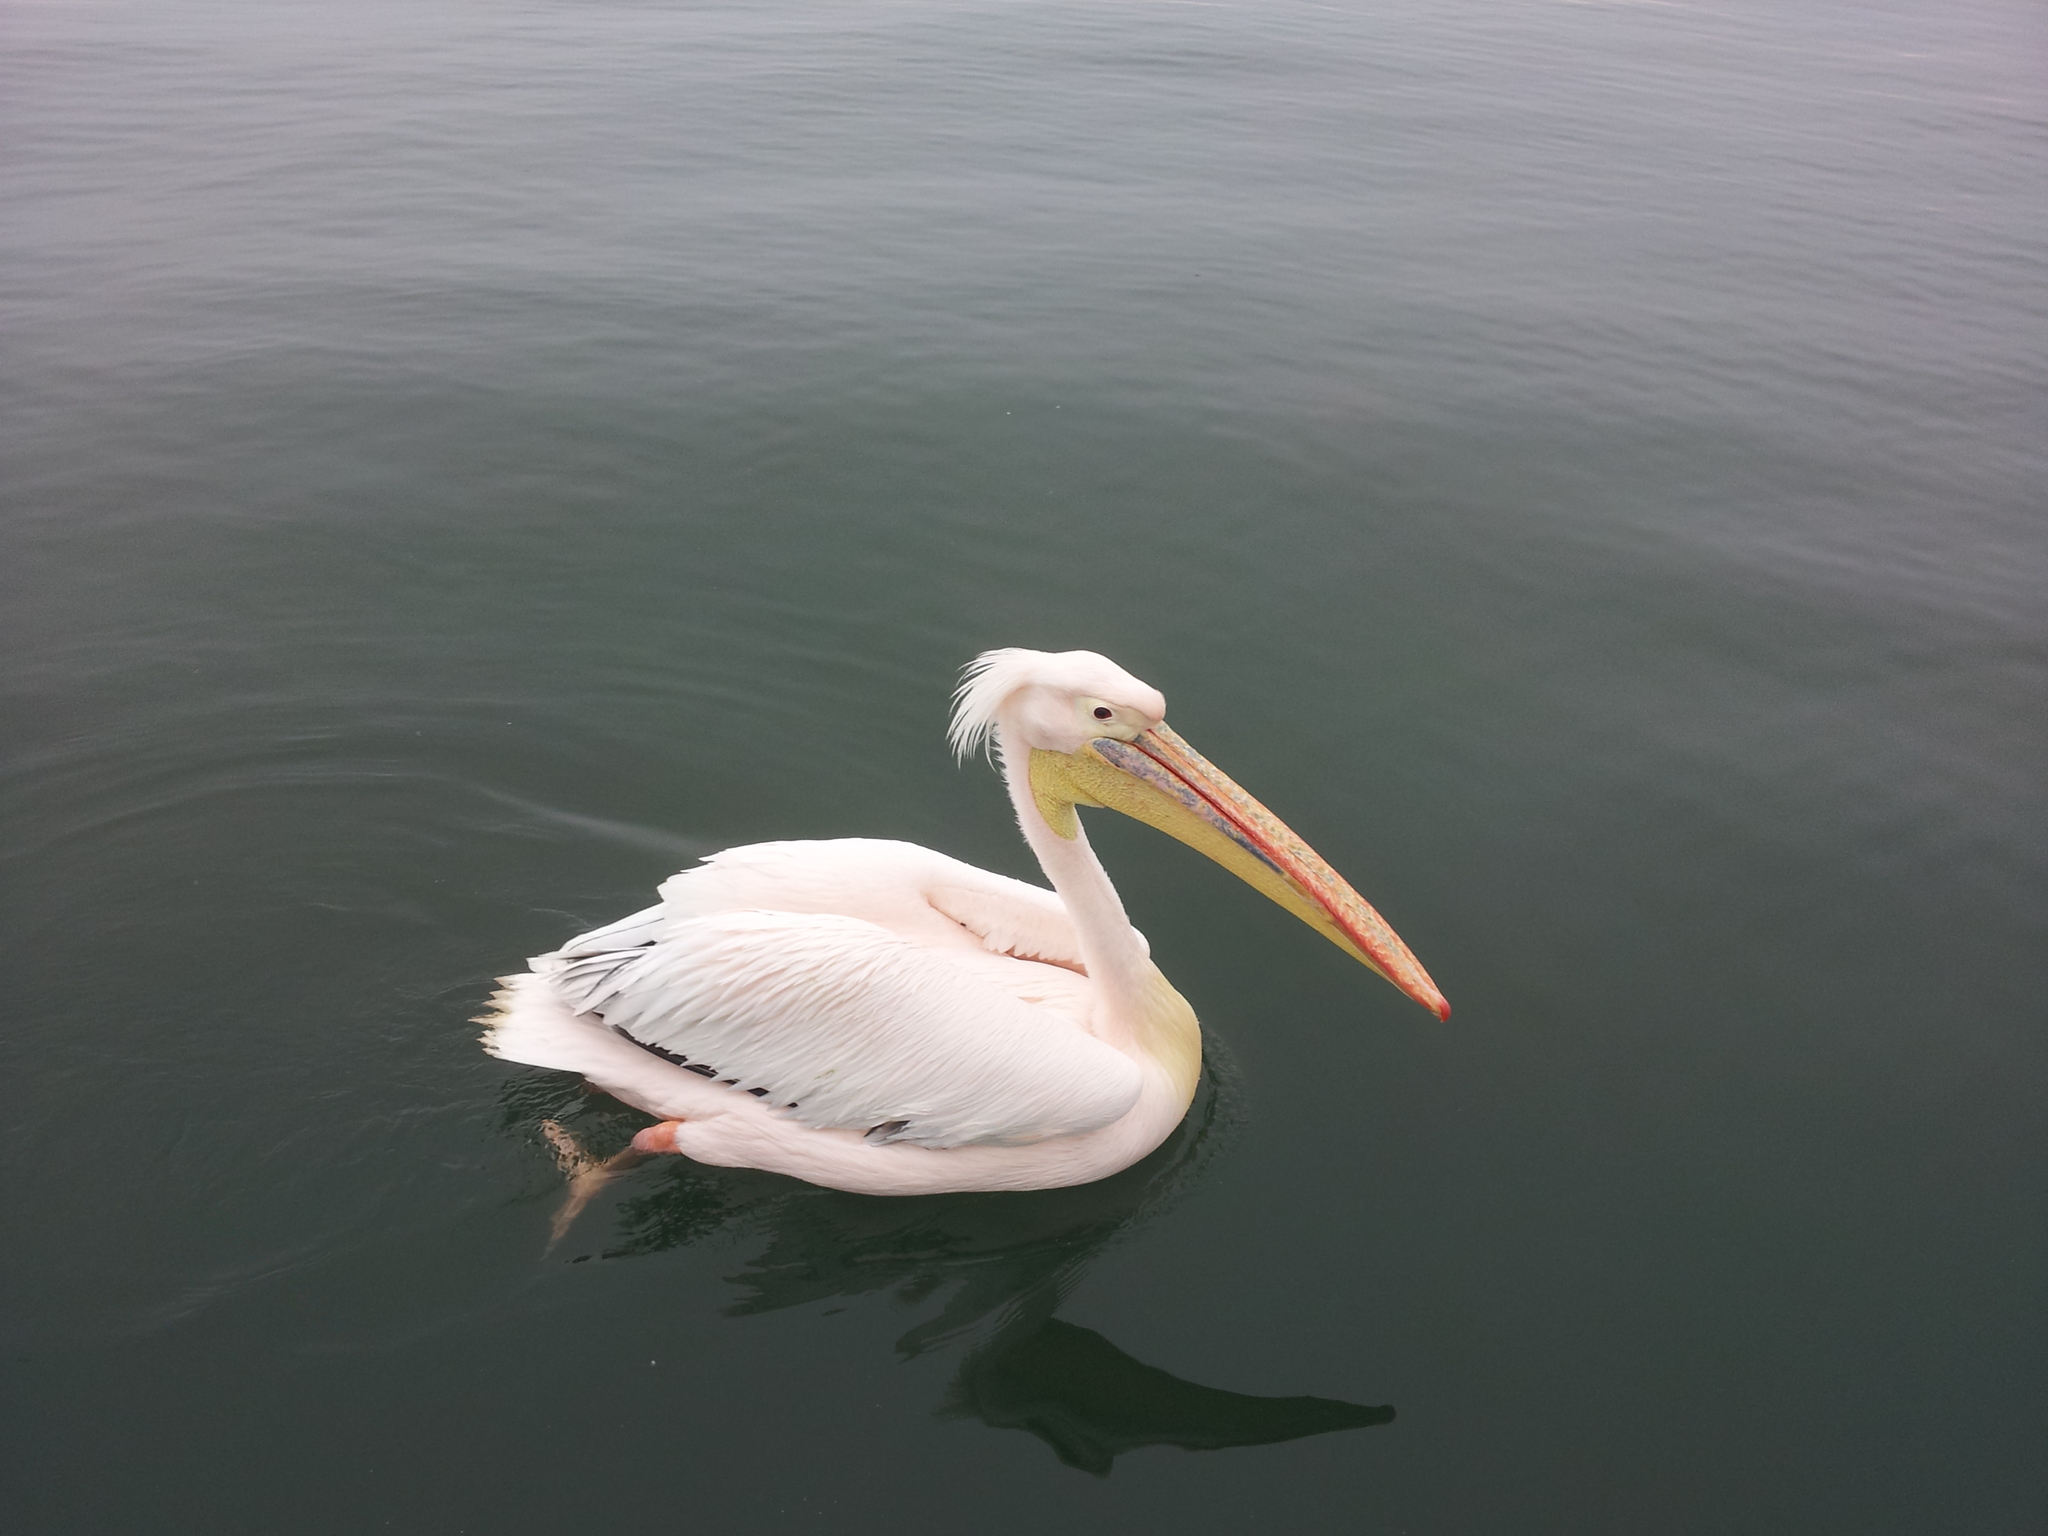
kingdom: Animalia
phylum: Chordata
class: Aves
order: Pelecaniformes
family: Pelecanidae
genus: Pelecanus
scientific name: Pelecanus onocrotalus
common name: Great white pelican
